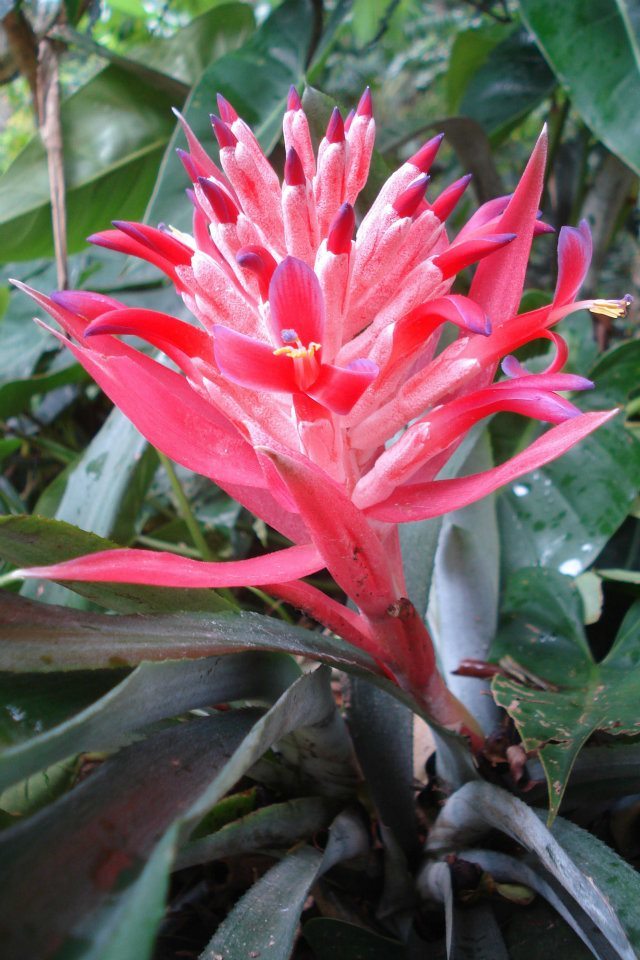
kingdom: Plantae
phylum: Tracheophyta
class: Liliopsida
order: Poales
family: Bromeliaceae
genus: Billbergia
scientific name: Billbergia pyramidalis
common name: Foolproofplant
